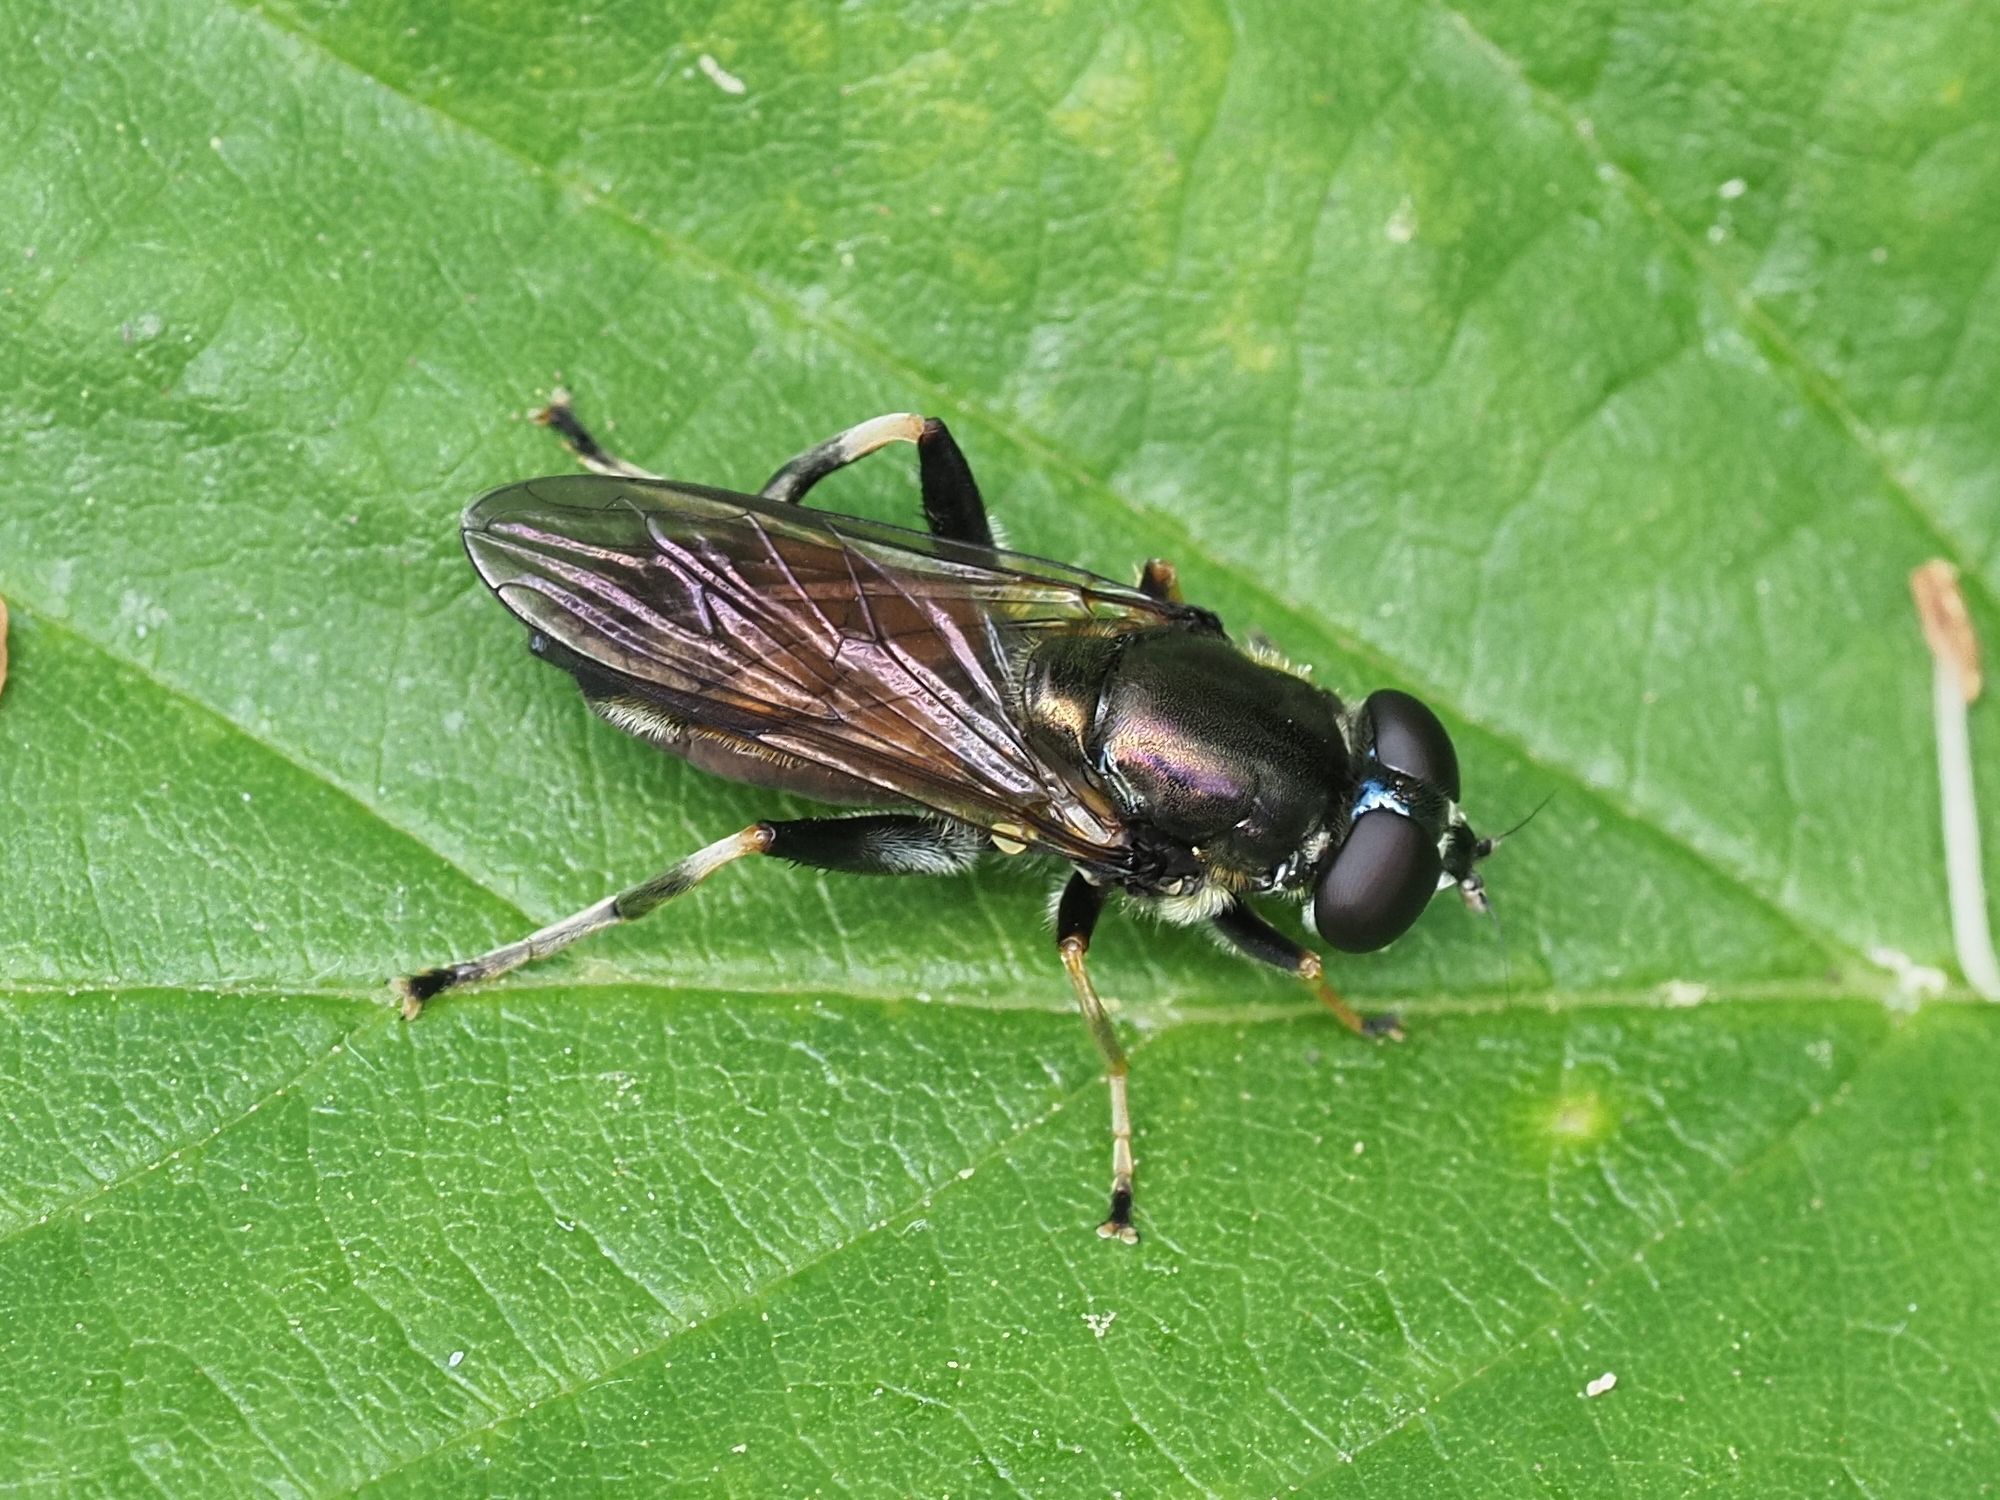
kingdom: Animalia
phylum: Arthropoda
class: Insecta
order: Diptera
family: Syrphidae
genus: Xylota
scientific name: Xylota segnis
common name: Brown-toed forest fly
